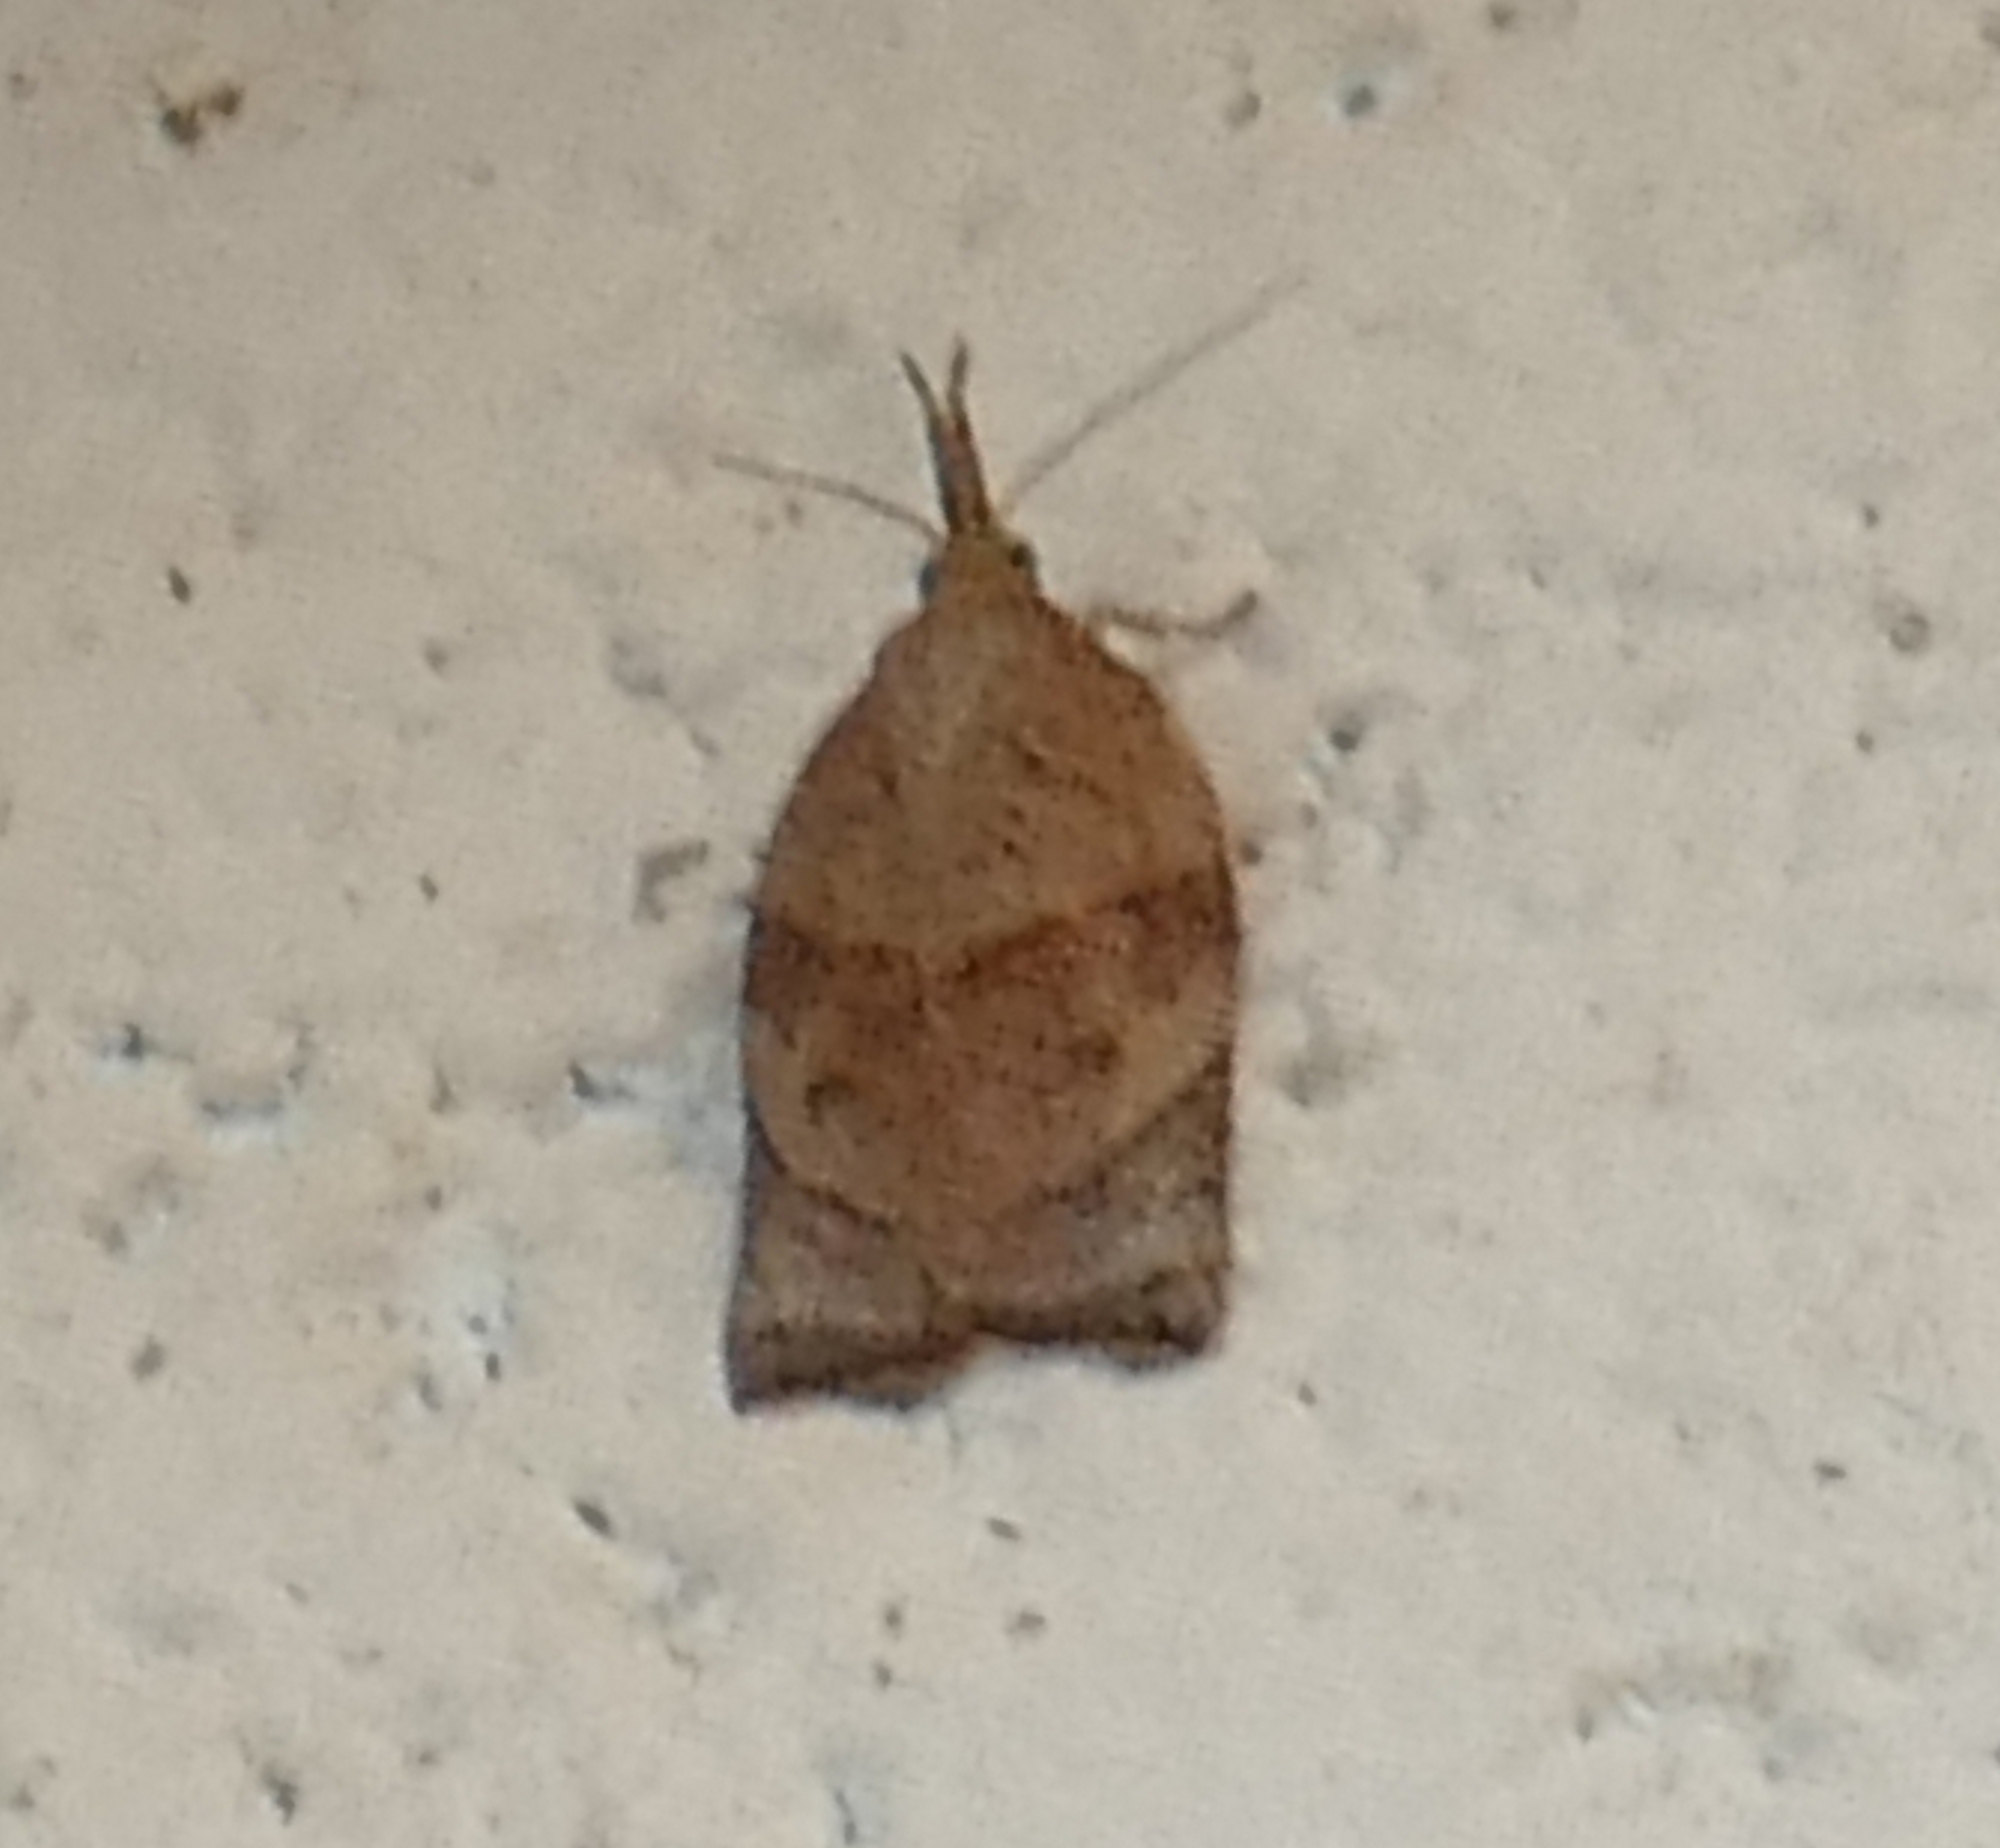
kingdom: Animalia
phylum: Arthropoda
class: Insecta
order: Lepidoptera
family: Tortricidae
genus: Platynota
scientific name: Platynota rostrana
